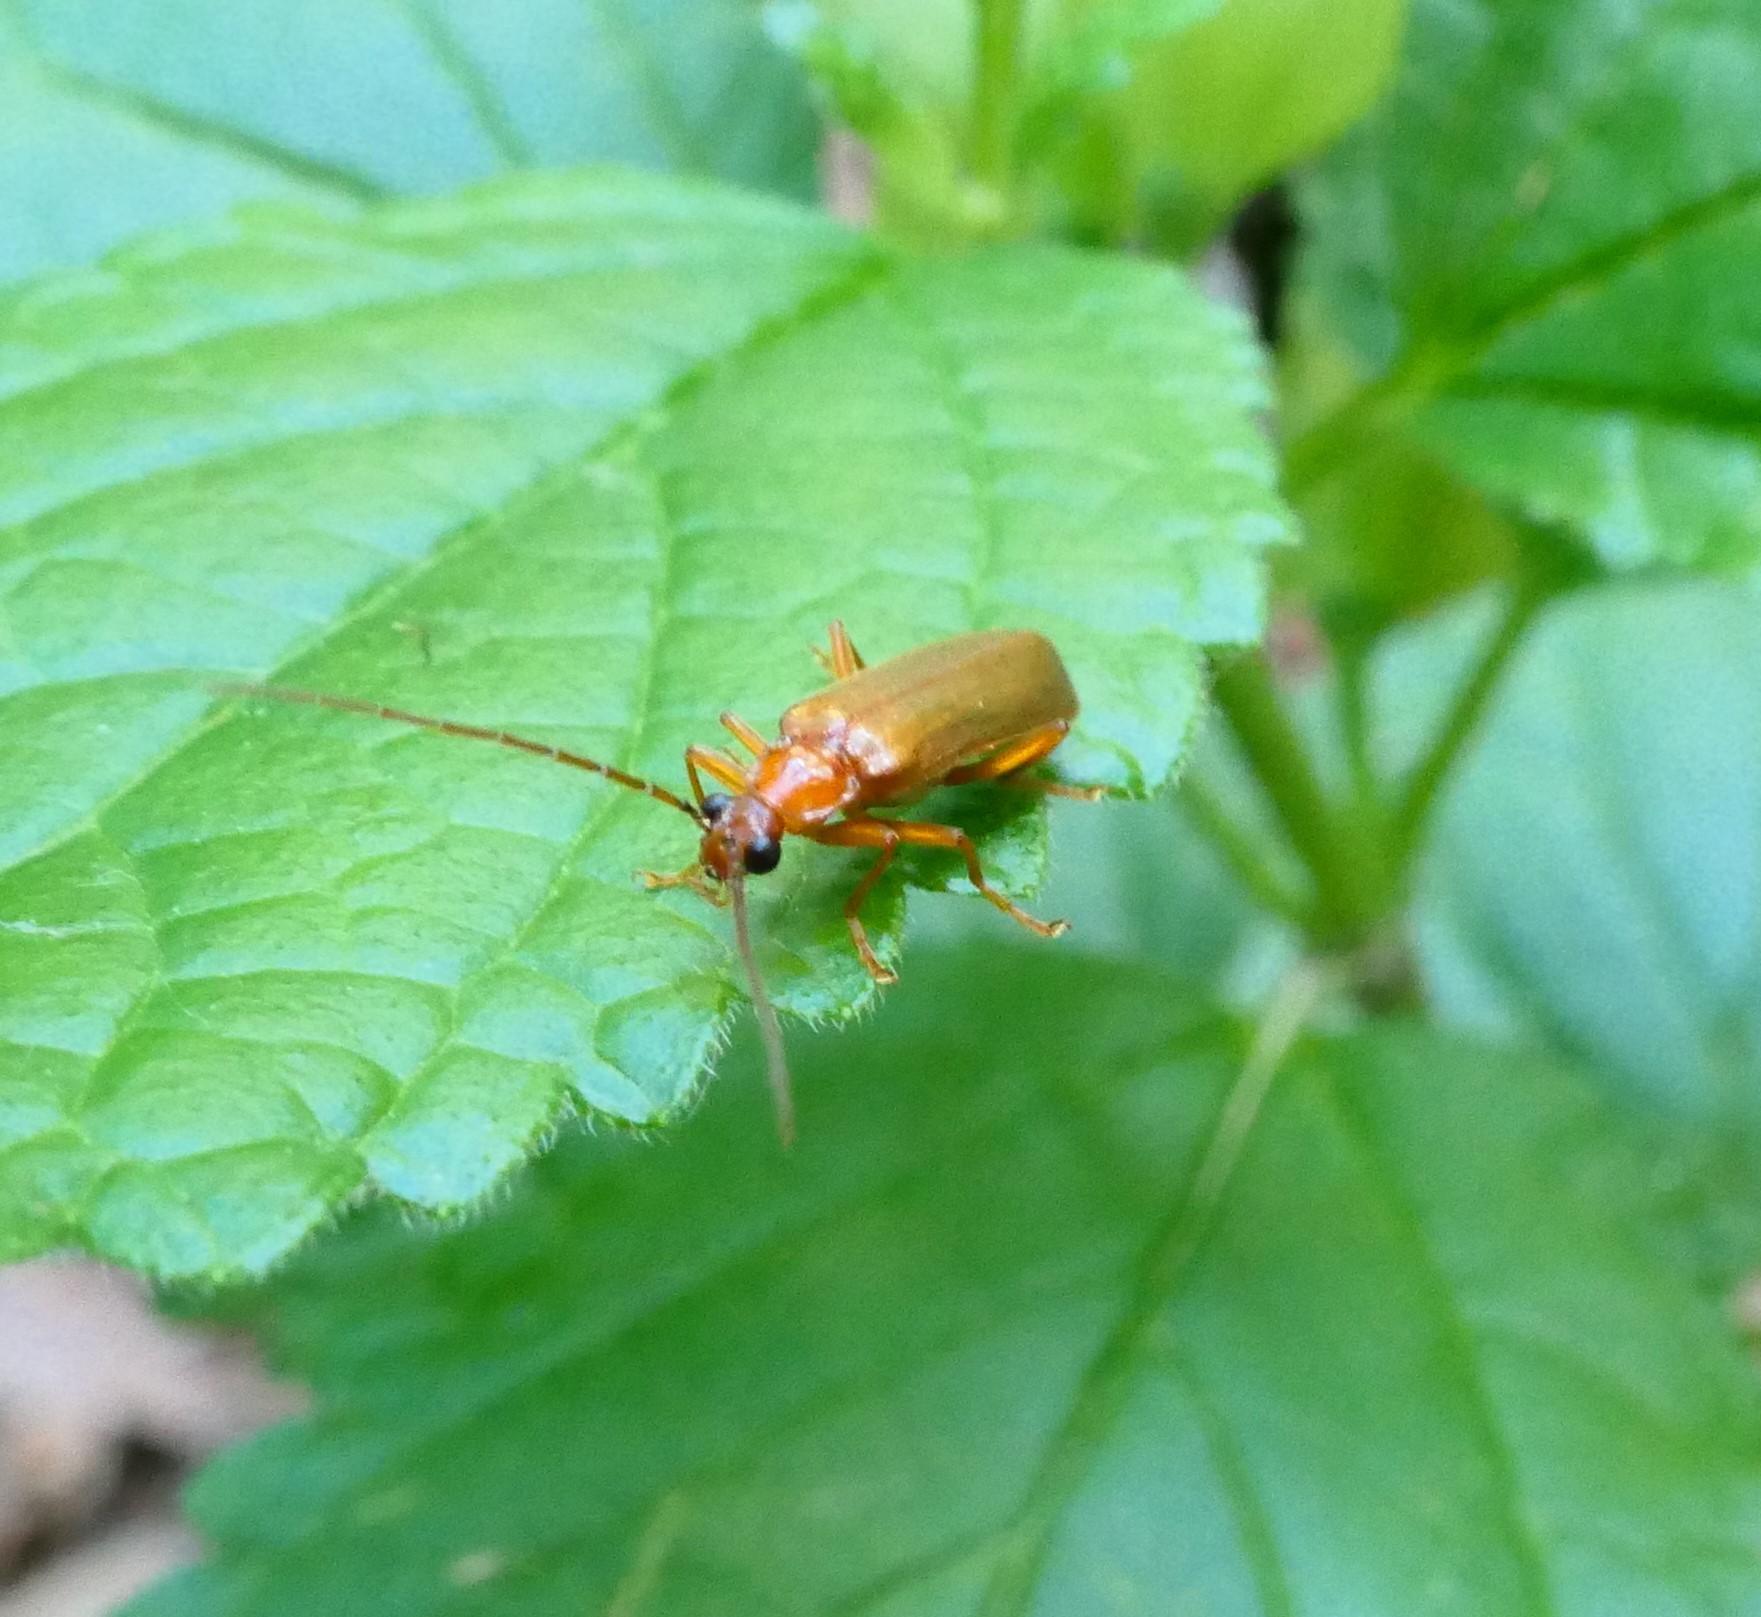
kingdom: Animalia
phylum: Arthropoda
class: Insecta
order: Coleoptera
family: Cantharidae
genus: Rhagonycha
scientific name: Rhagonycha translucida
